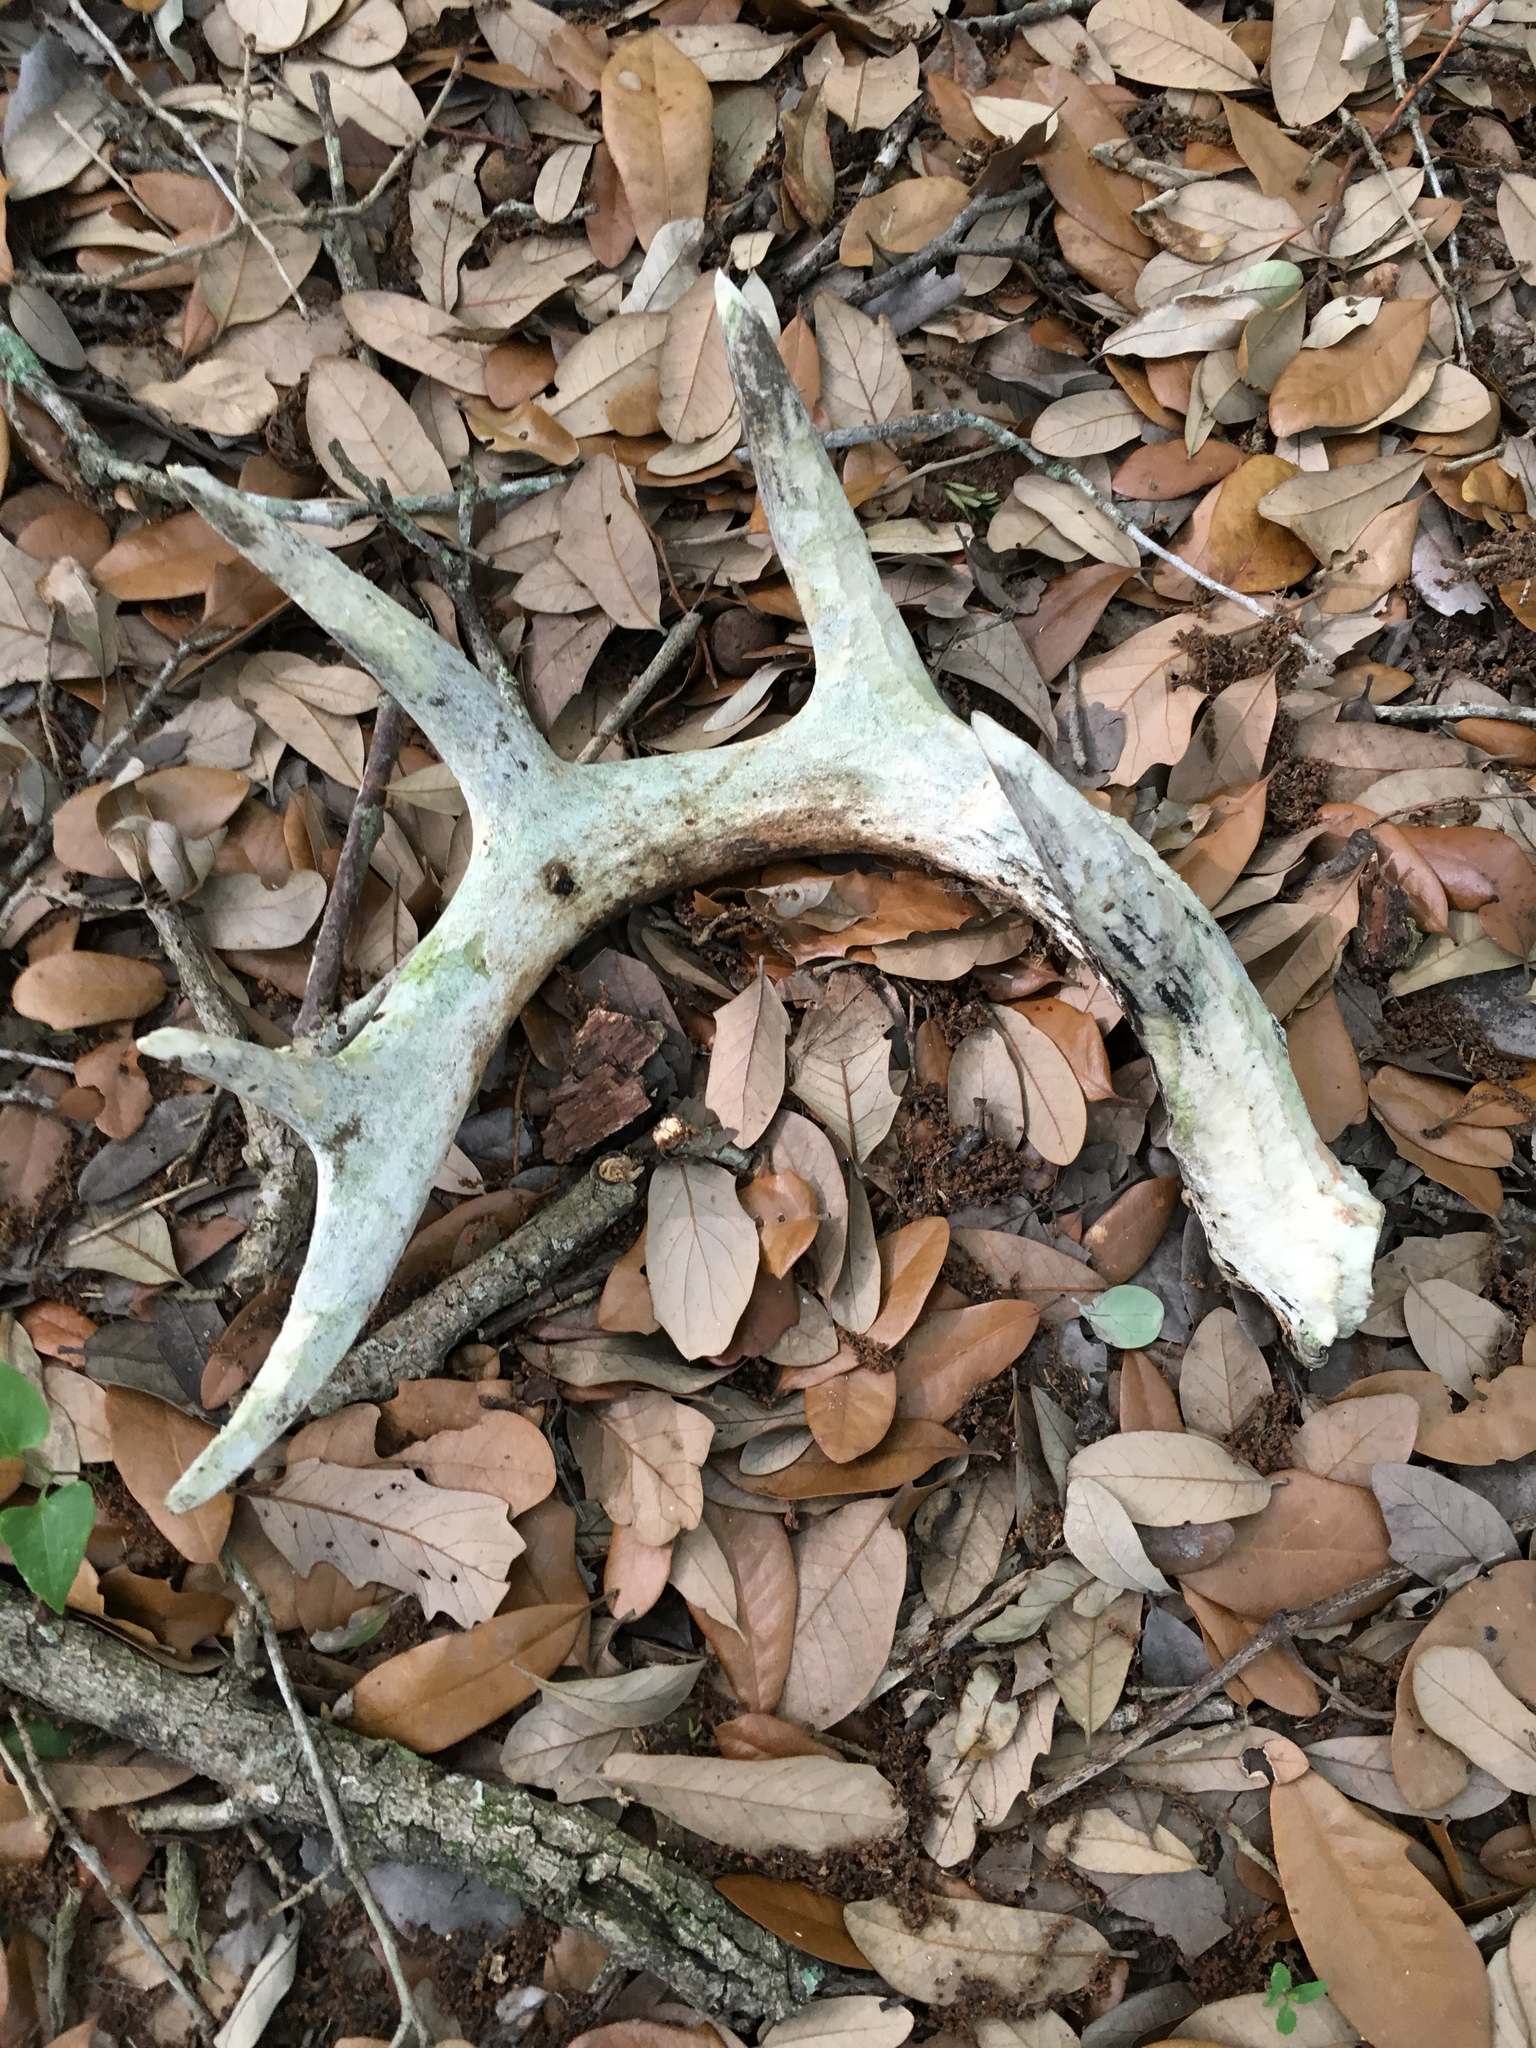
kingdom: Animalia
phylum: Chordata
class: Mammalia
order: Artiodactyla
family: Cervidae
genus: Odocoileus
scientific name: Odocoileus virginianus
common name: White-tailed deer
